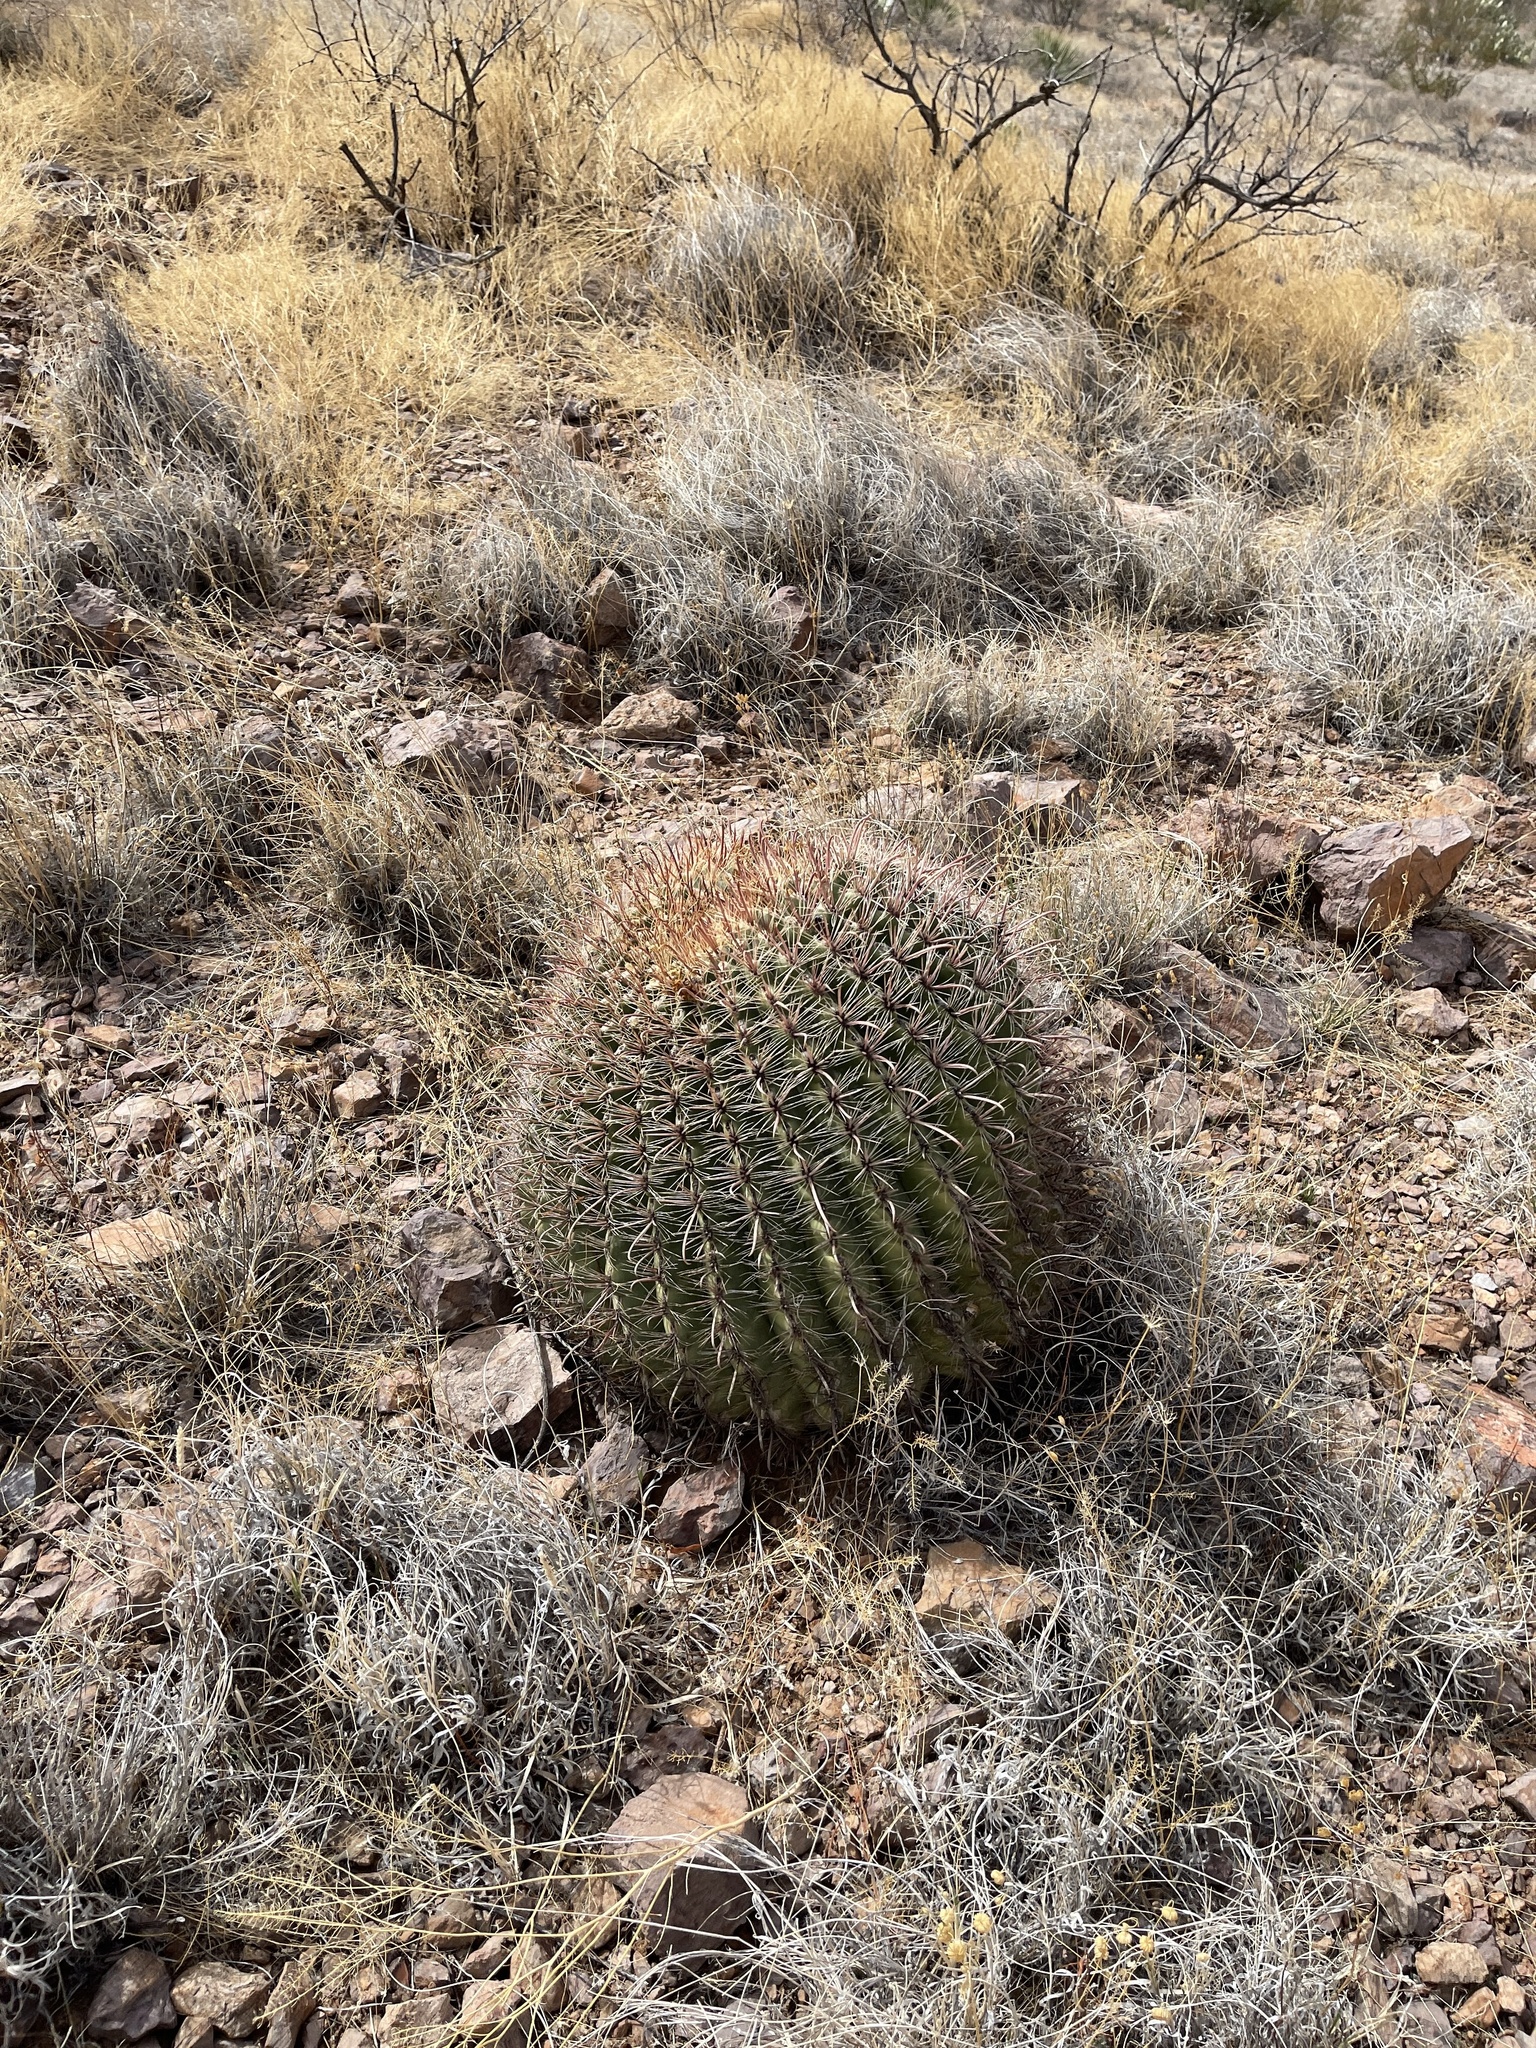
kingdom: Plantae
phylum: Tracheophyta
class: Magnoliopsida
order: Caryophyllales
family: Cactaceae
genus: Ferocactus
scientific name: Ferocactus wislizeni
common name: Candy barrel cactus
